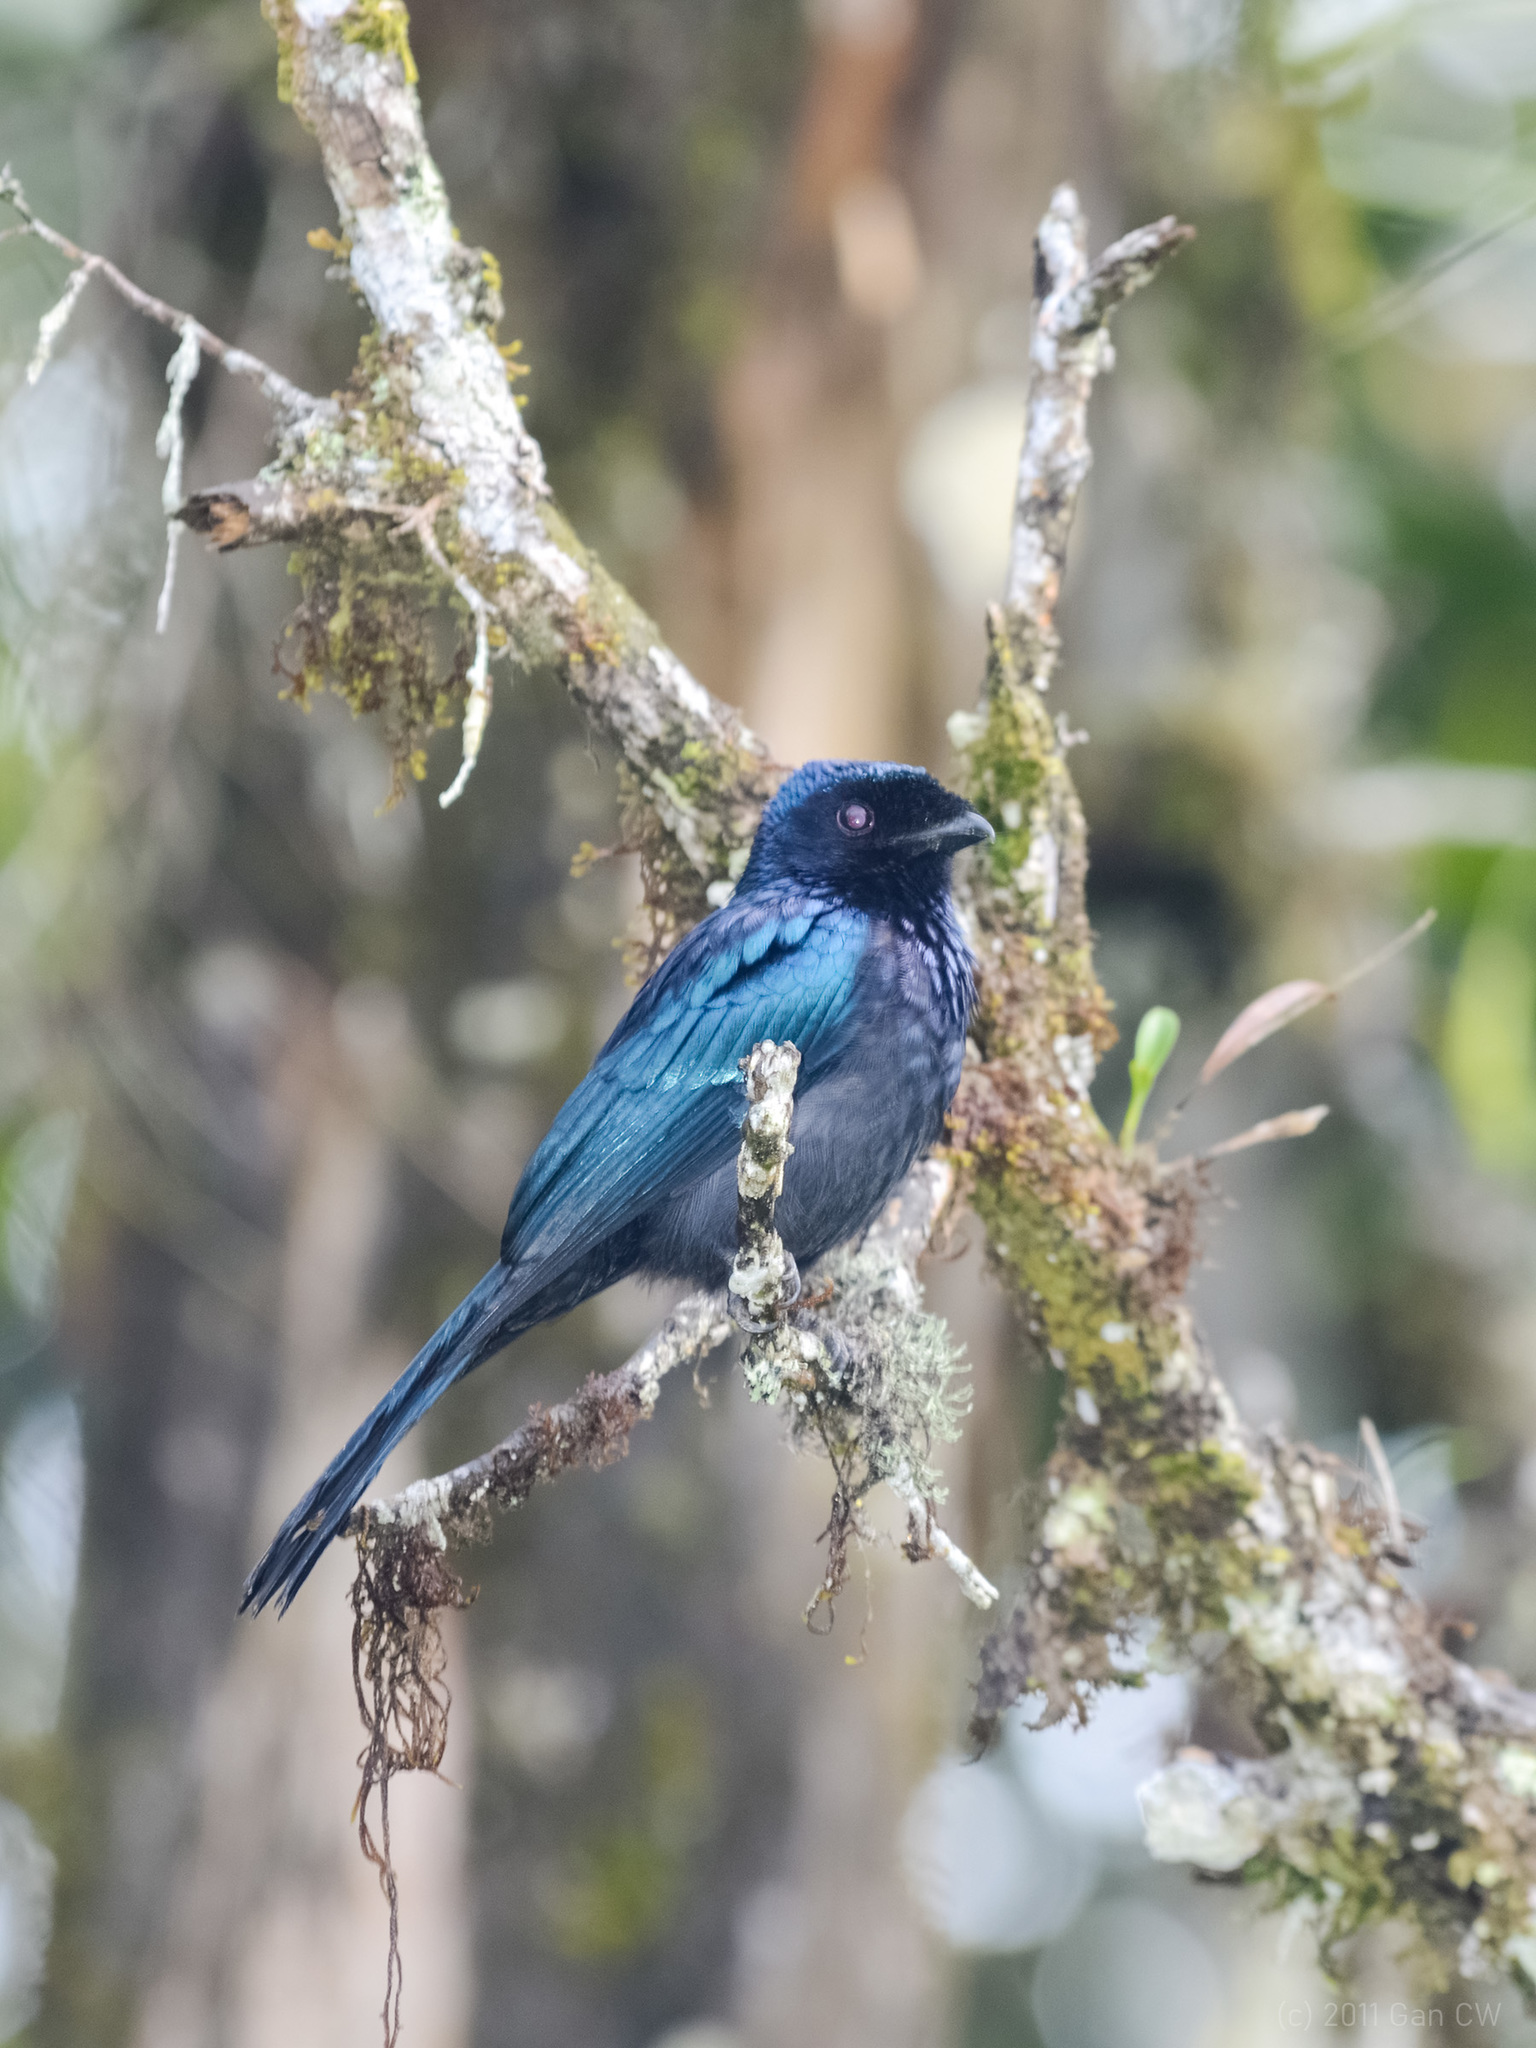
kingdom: Animalia
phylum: Chordata
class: Aves
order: Passeriformes
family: Dicruridae
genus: Dicrurus
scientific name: Dicrurus remifer
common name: Lesser racket-tailed drongo
